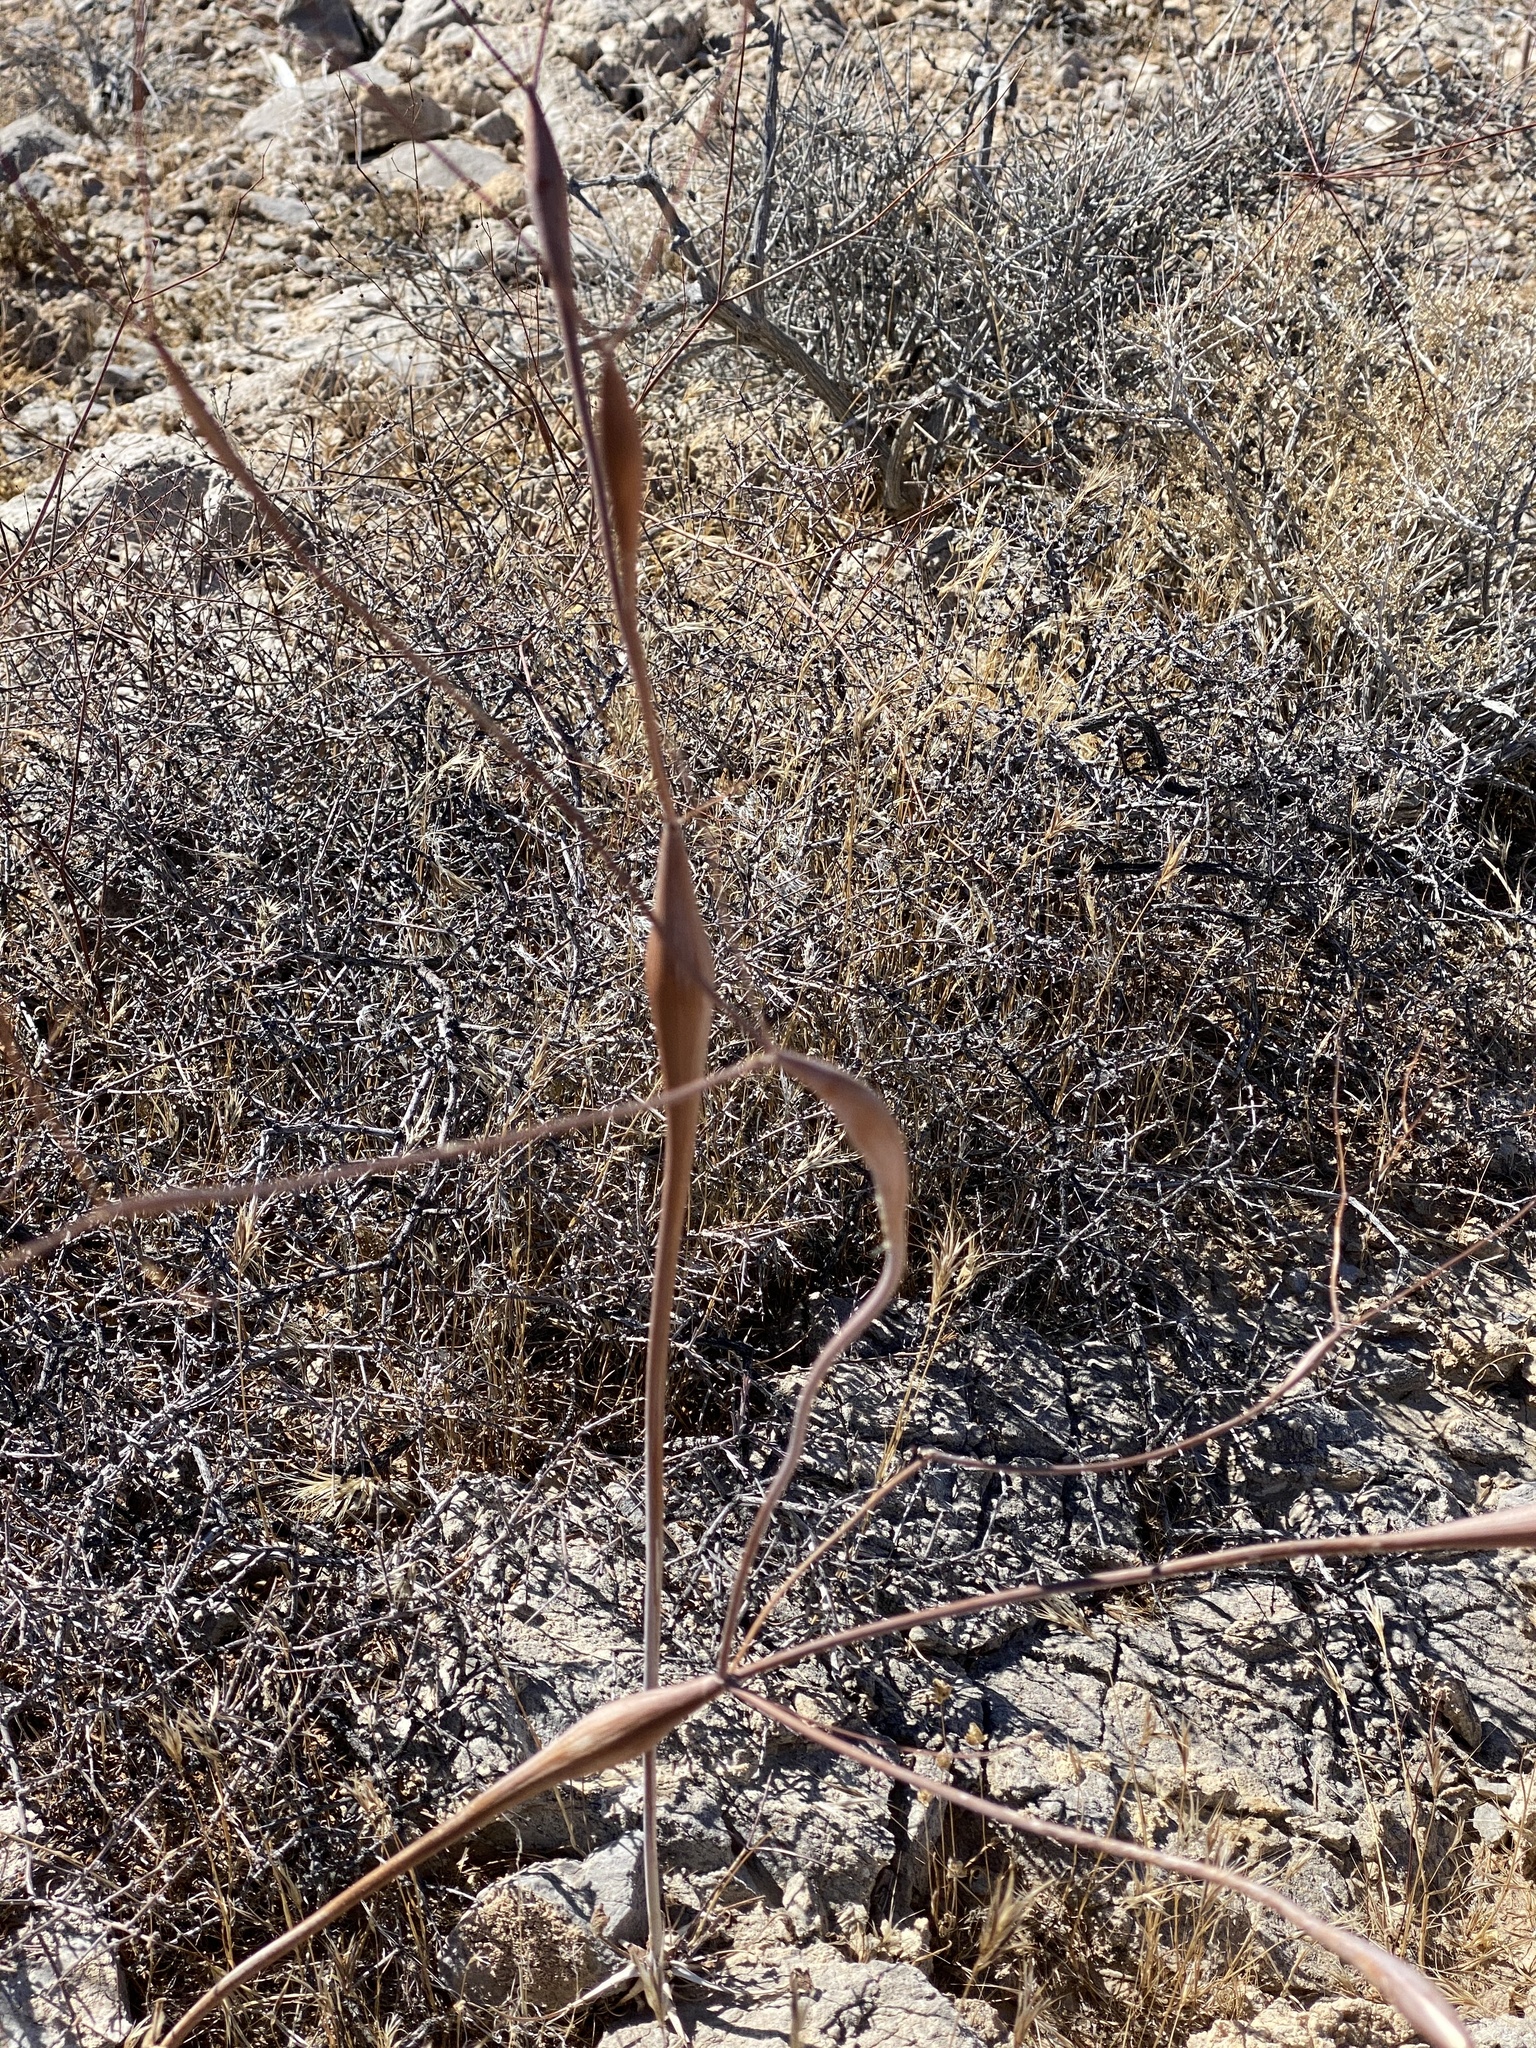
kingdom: Plantae
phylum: Tracheophyta
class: Magnoliopsida
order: Caryophyllales
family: Polygonaceae
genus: Eriogonum
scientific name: Eriogonum inflatum
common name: Desert trumpet
